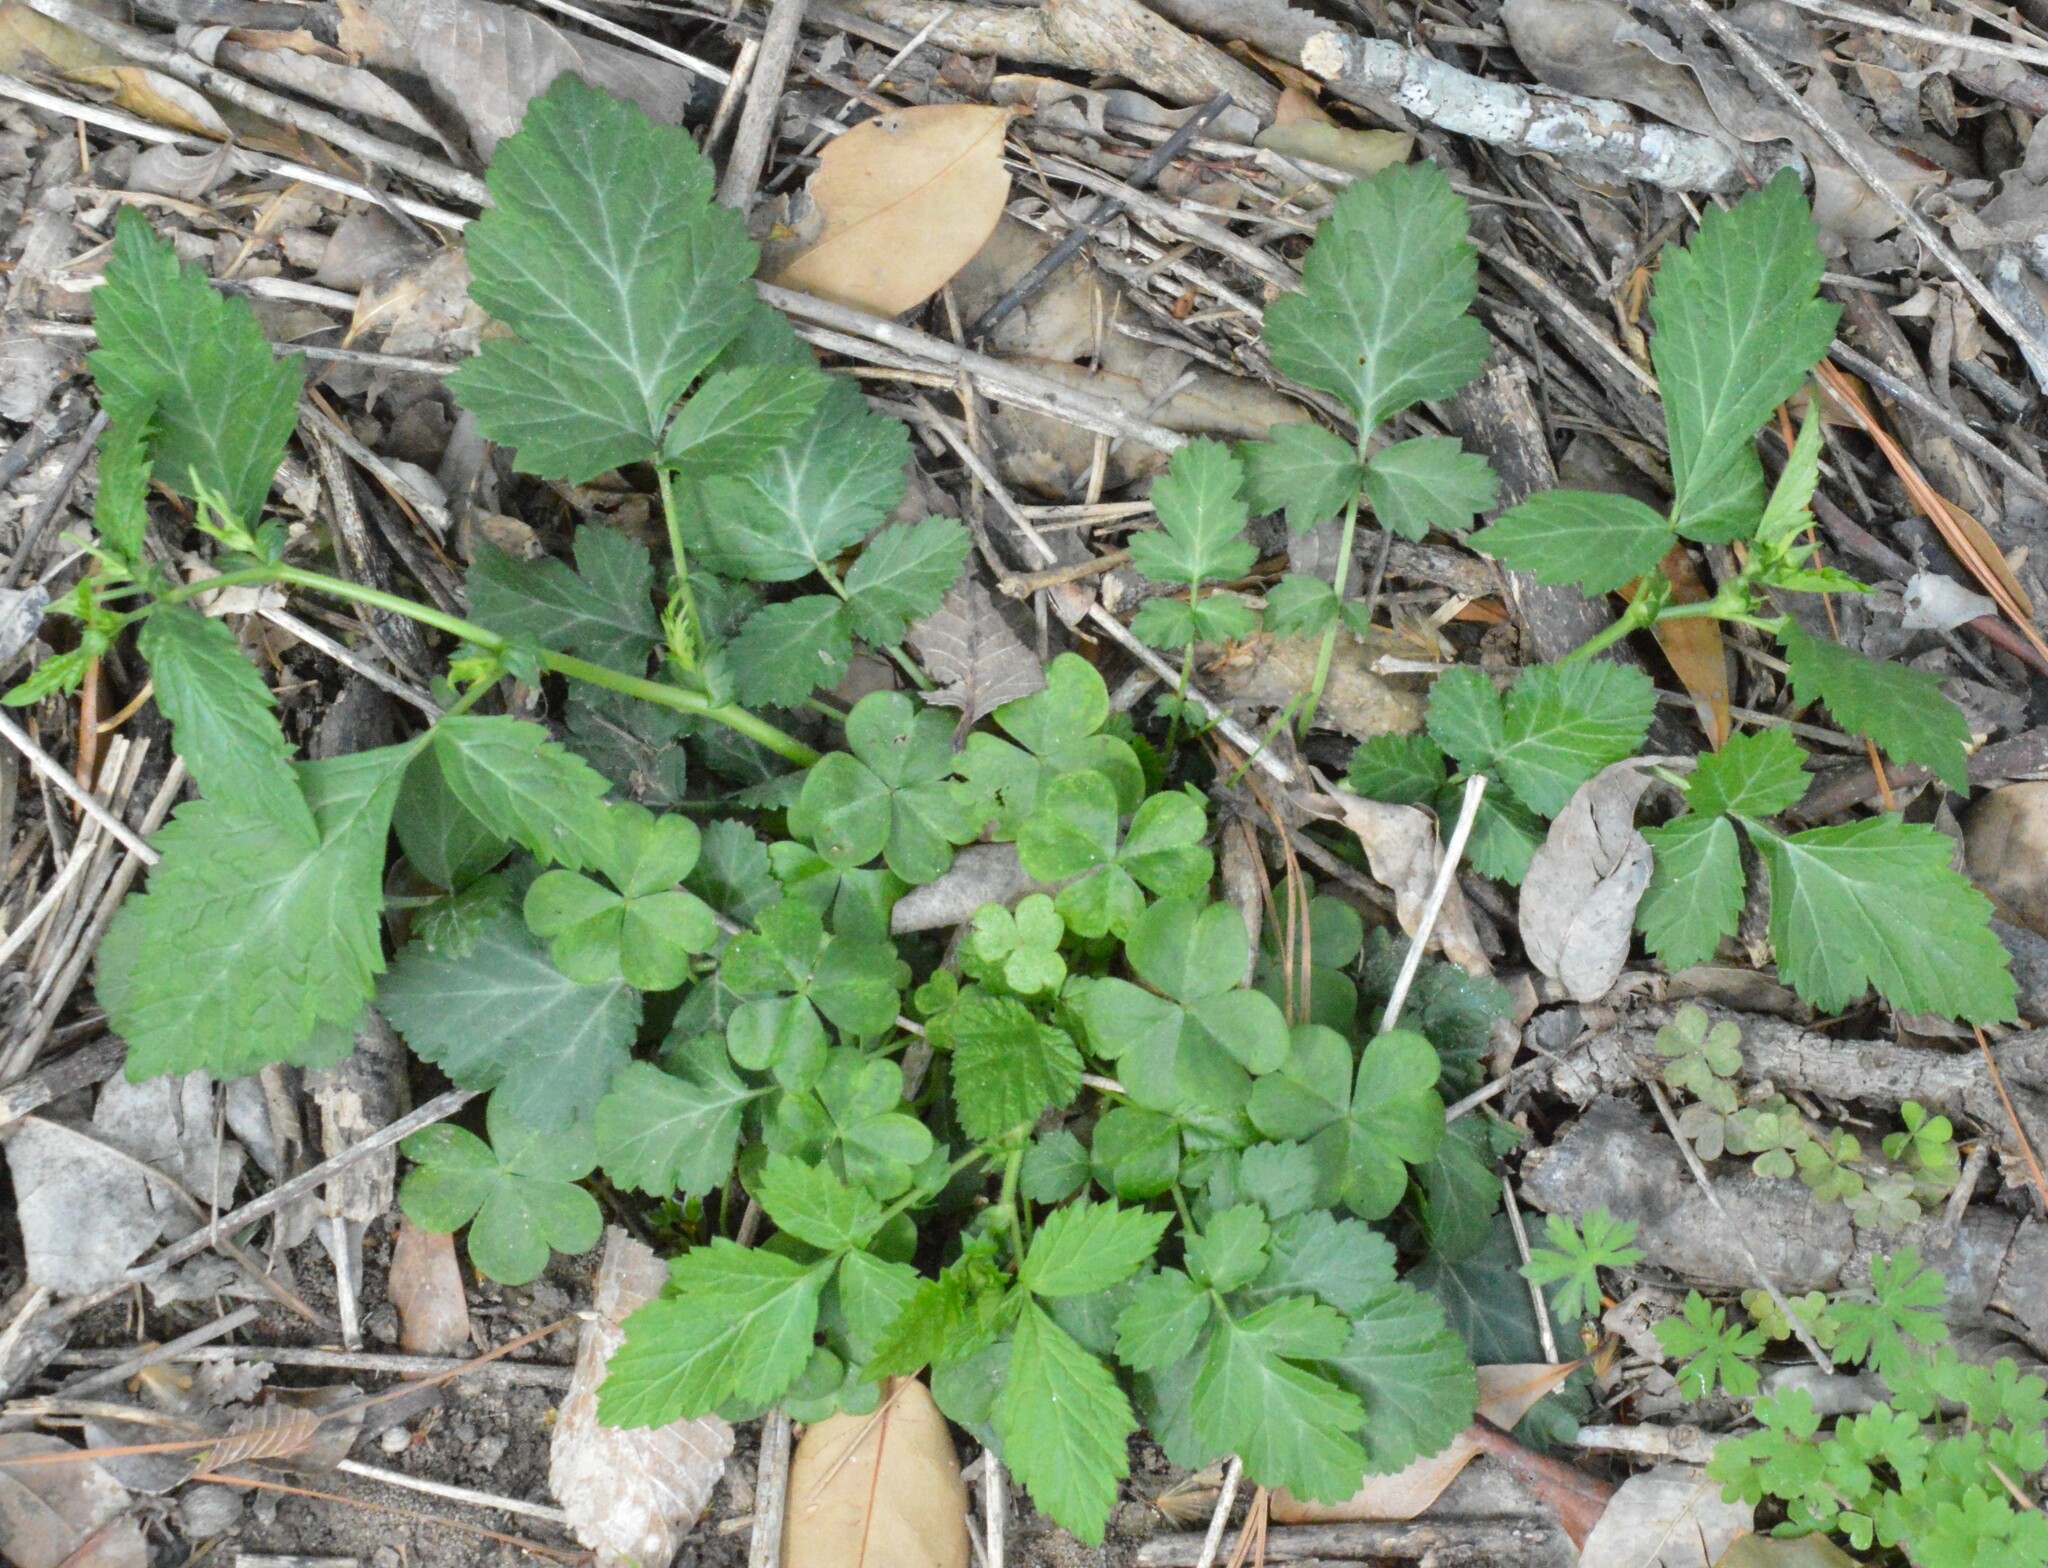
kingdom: Plantae
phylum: Tracheophyta
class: Magnoliopsida
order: Rosales
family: Rosaceae
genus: Geum
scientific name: Geum canadense
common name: White avens
